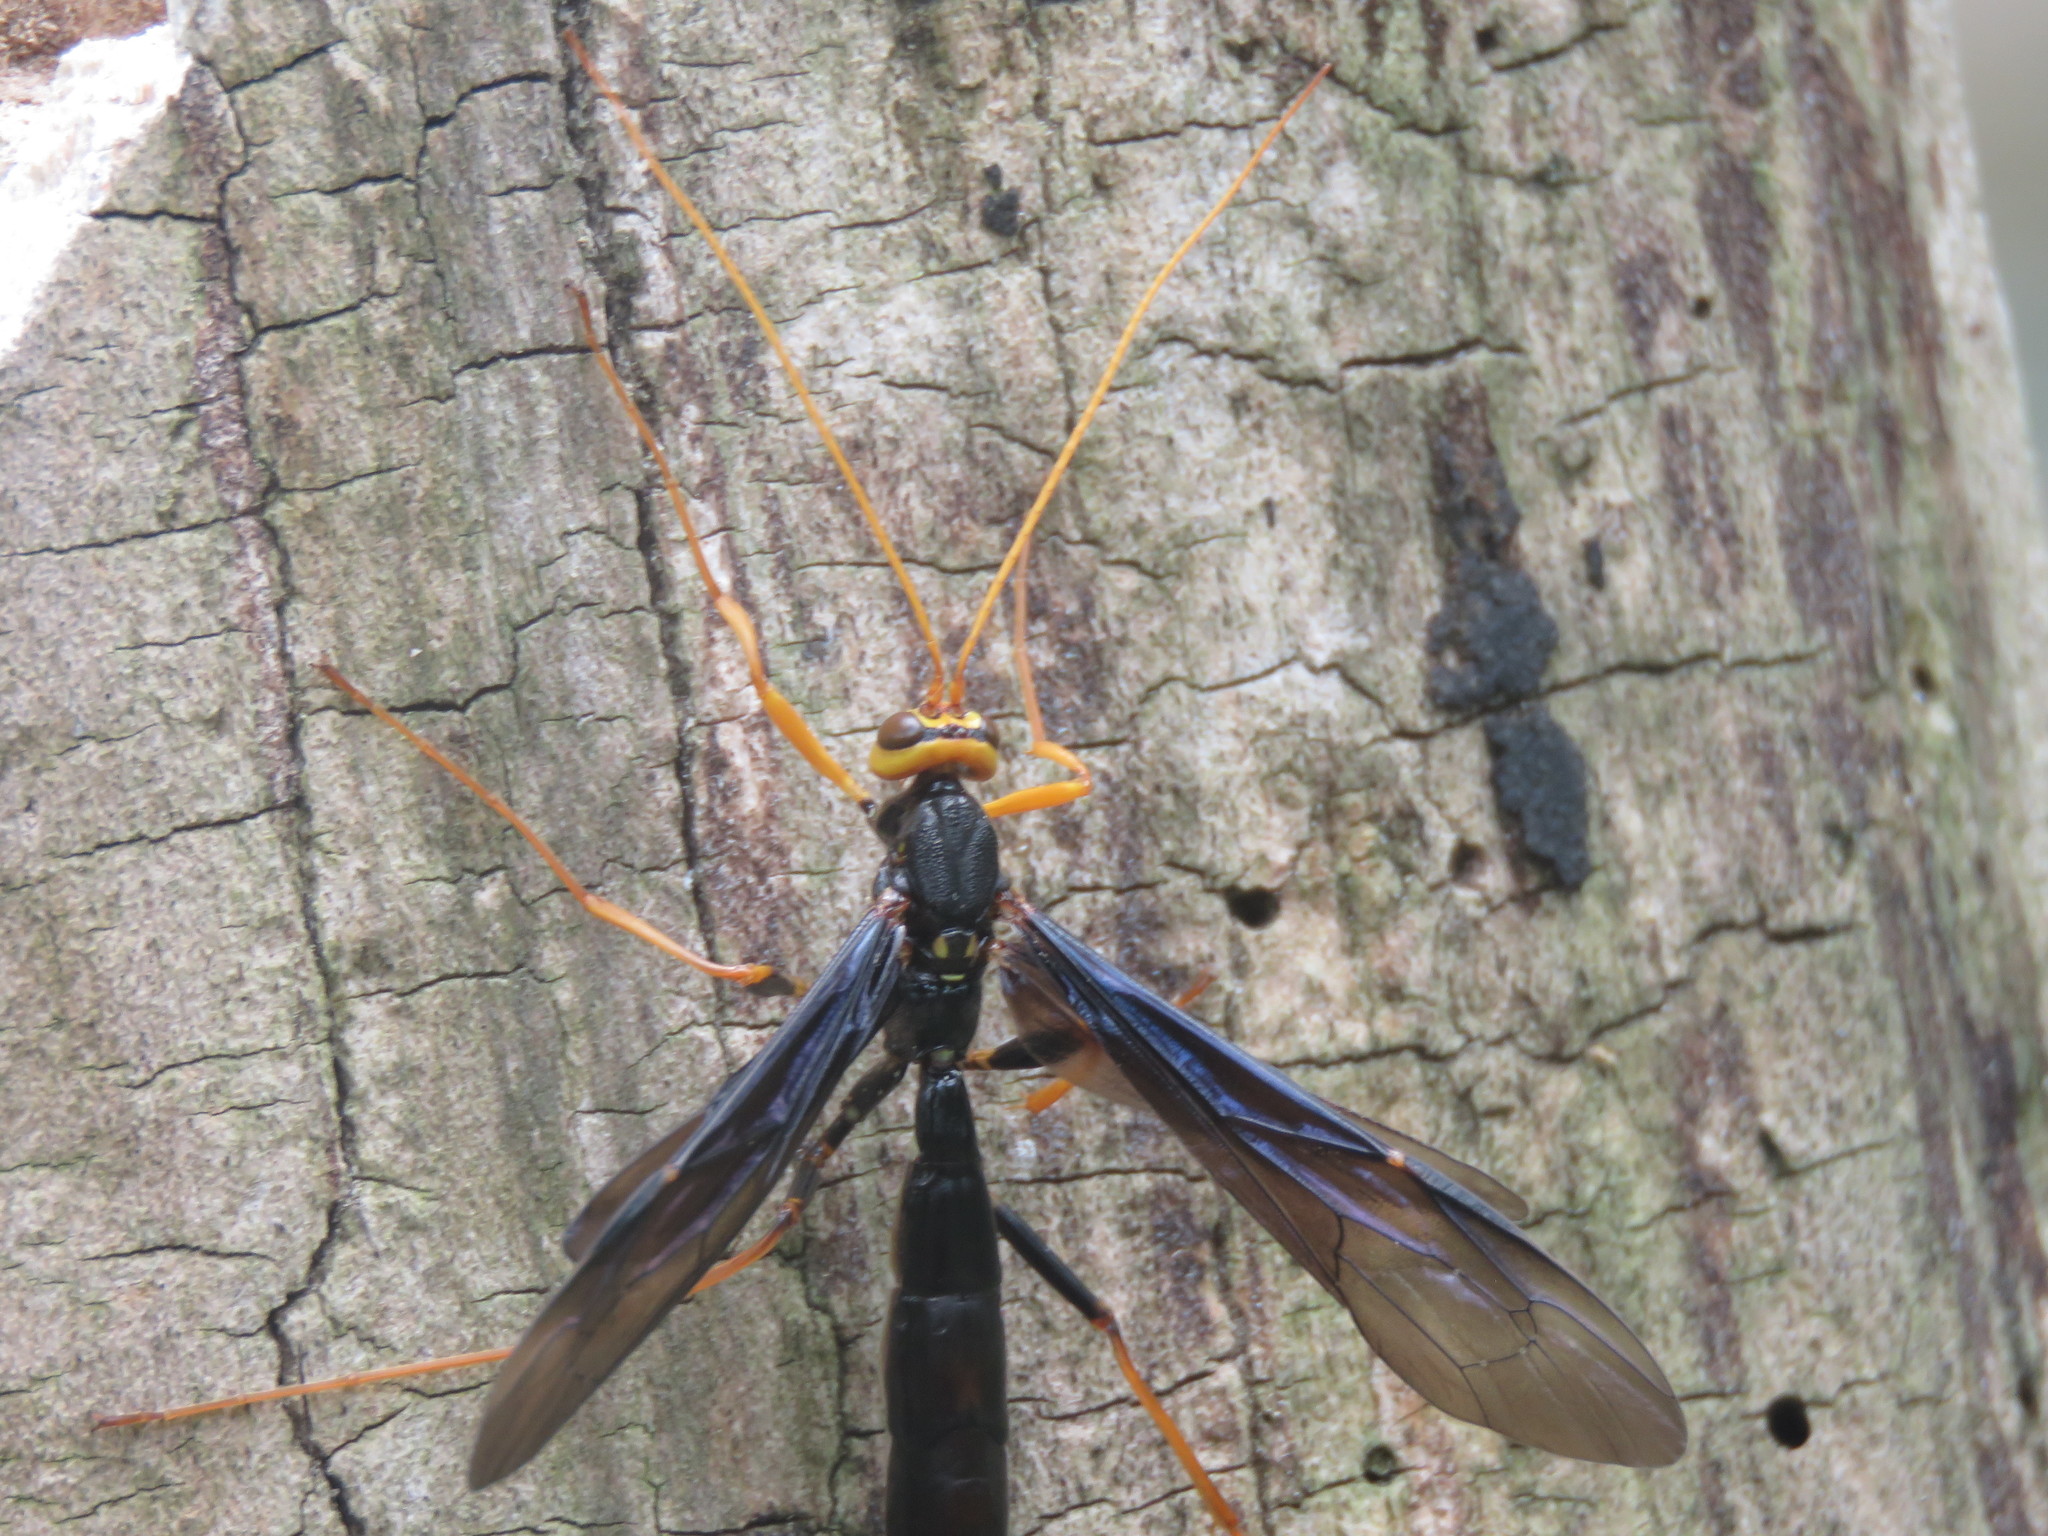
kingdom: Animalia
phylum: Arthropoda
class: Insecta
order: Hymenoptera
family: Ichneumonidae
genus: Megarhyssa
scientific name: Megarhyssa atrata
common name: Black giant ichneumonid wasp
